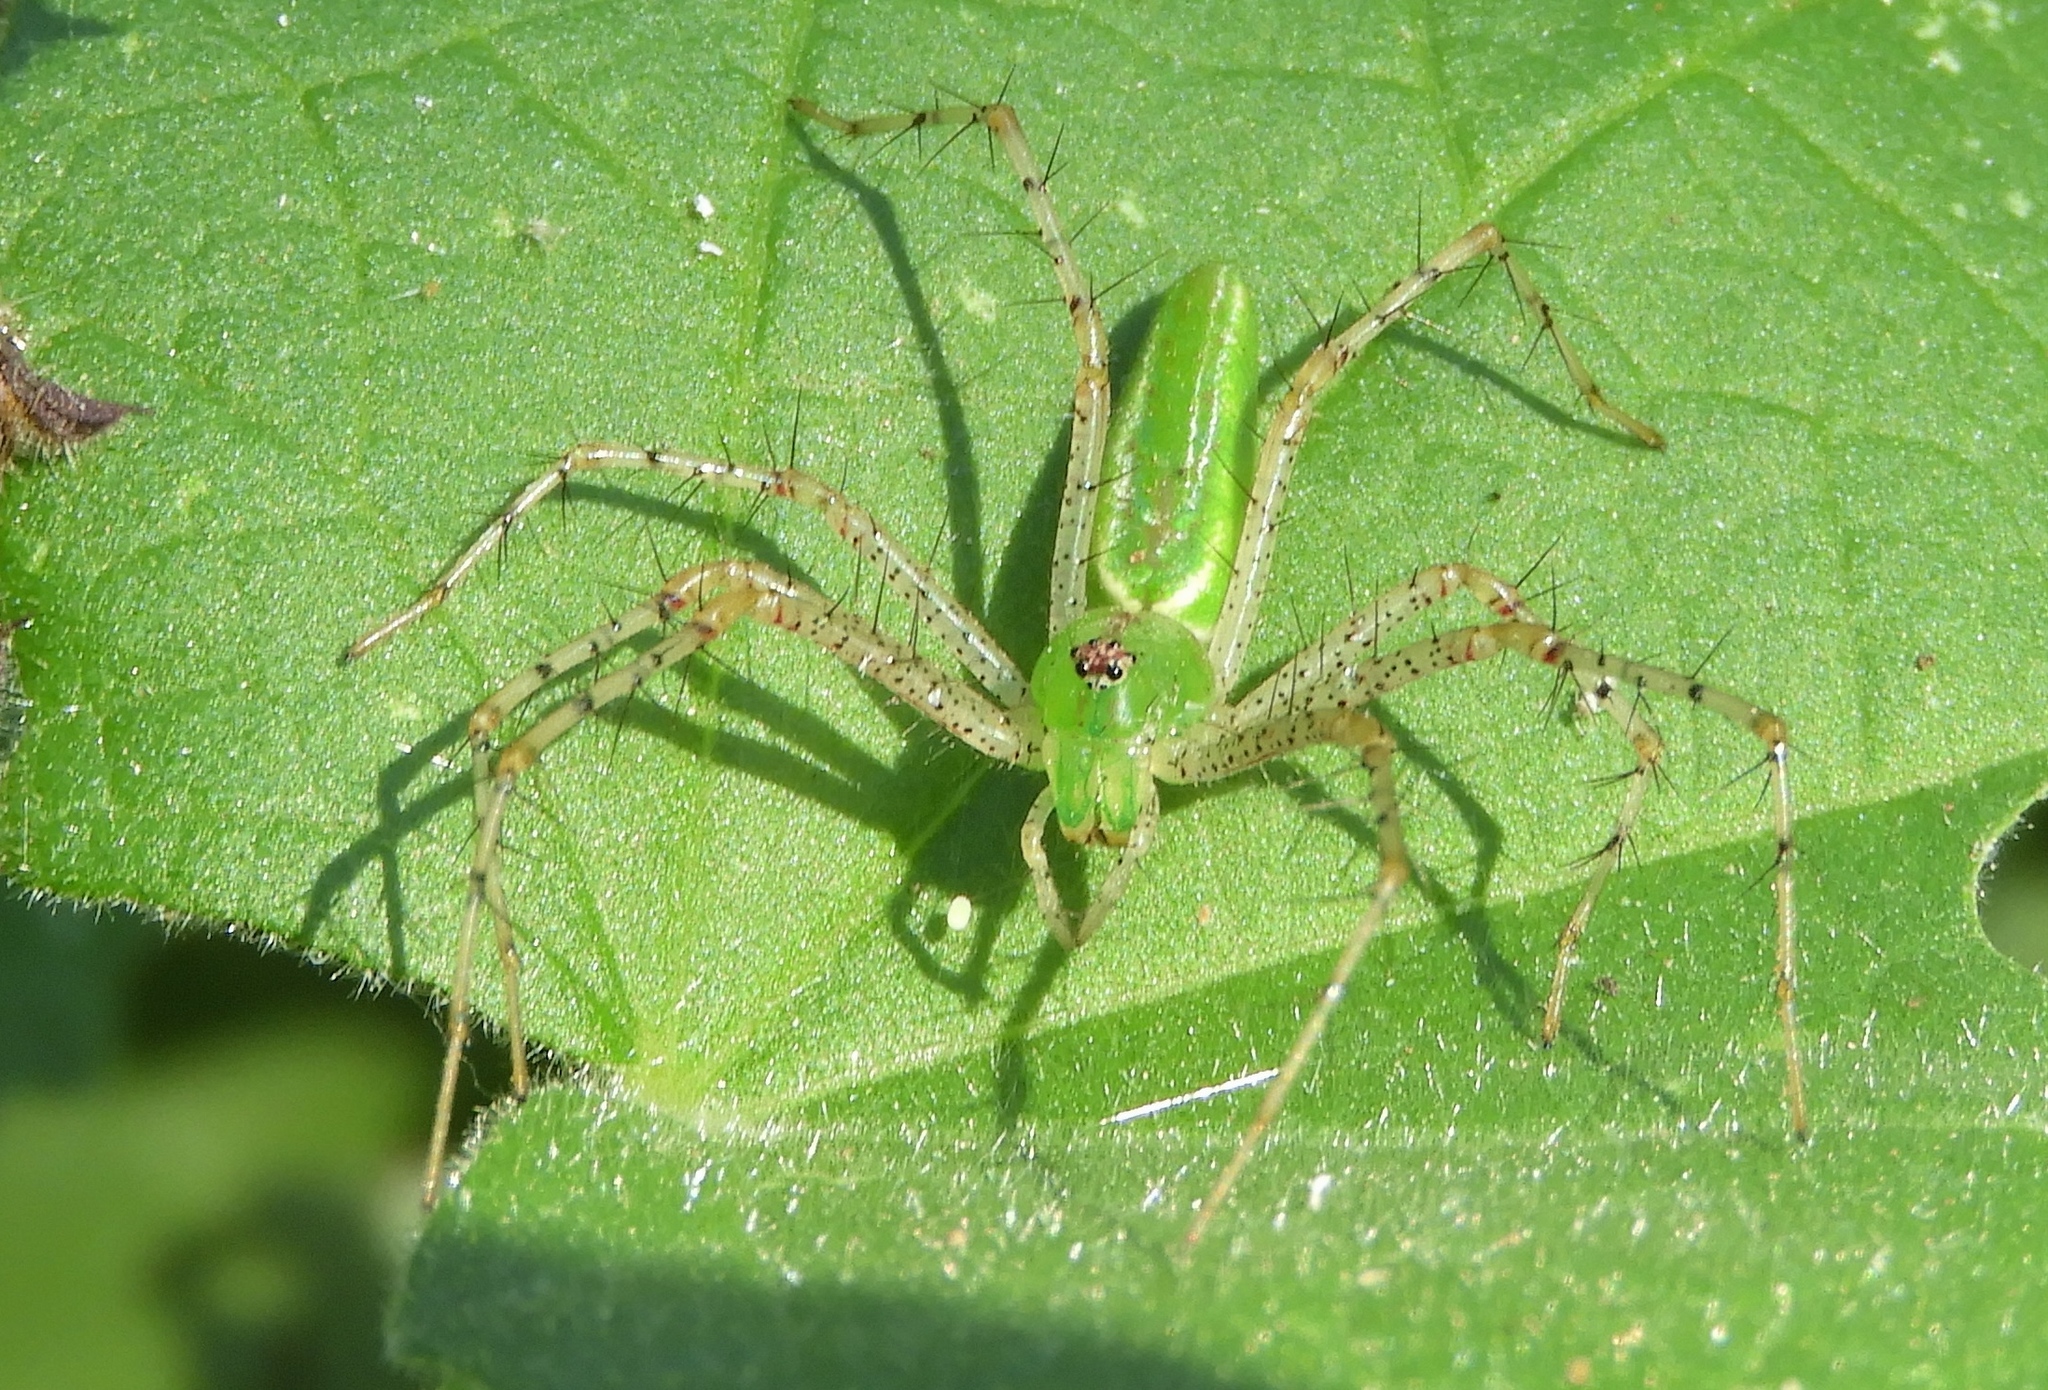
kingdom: Animalia
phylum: Arthropoda
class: Arachnida
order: Araneae
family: Oxyopidae
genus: Peucetia
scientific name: Peucetia
